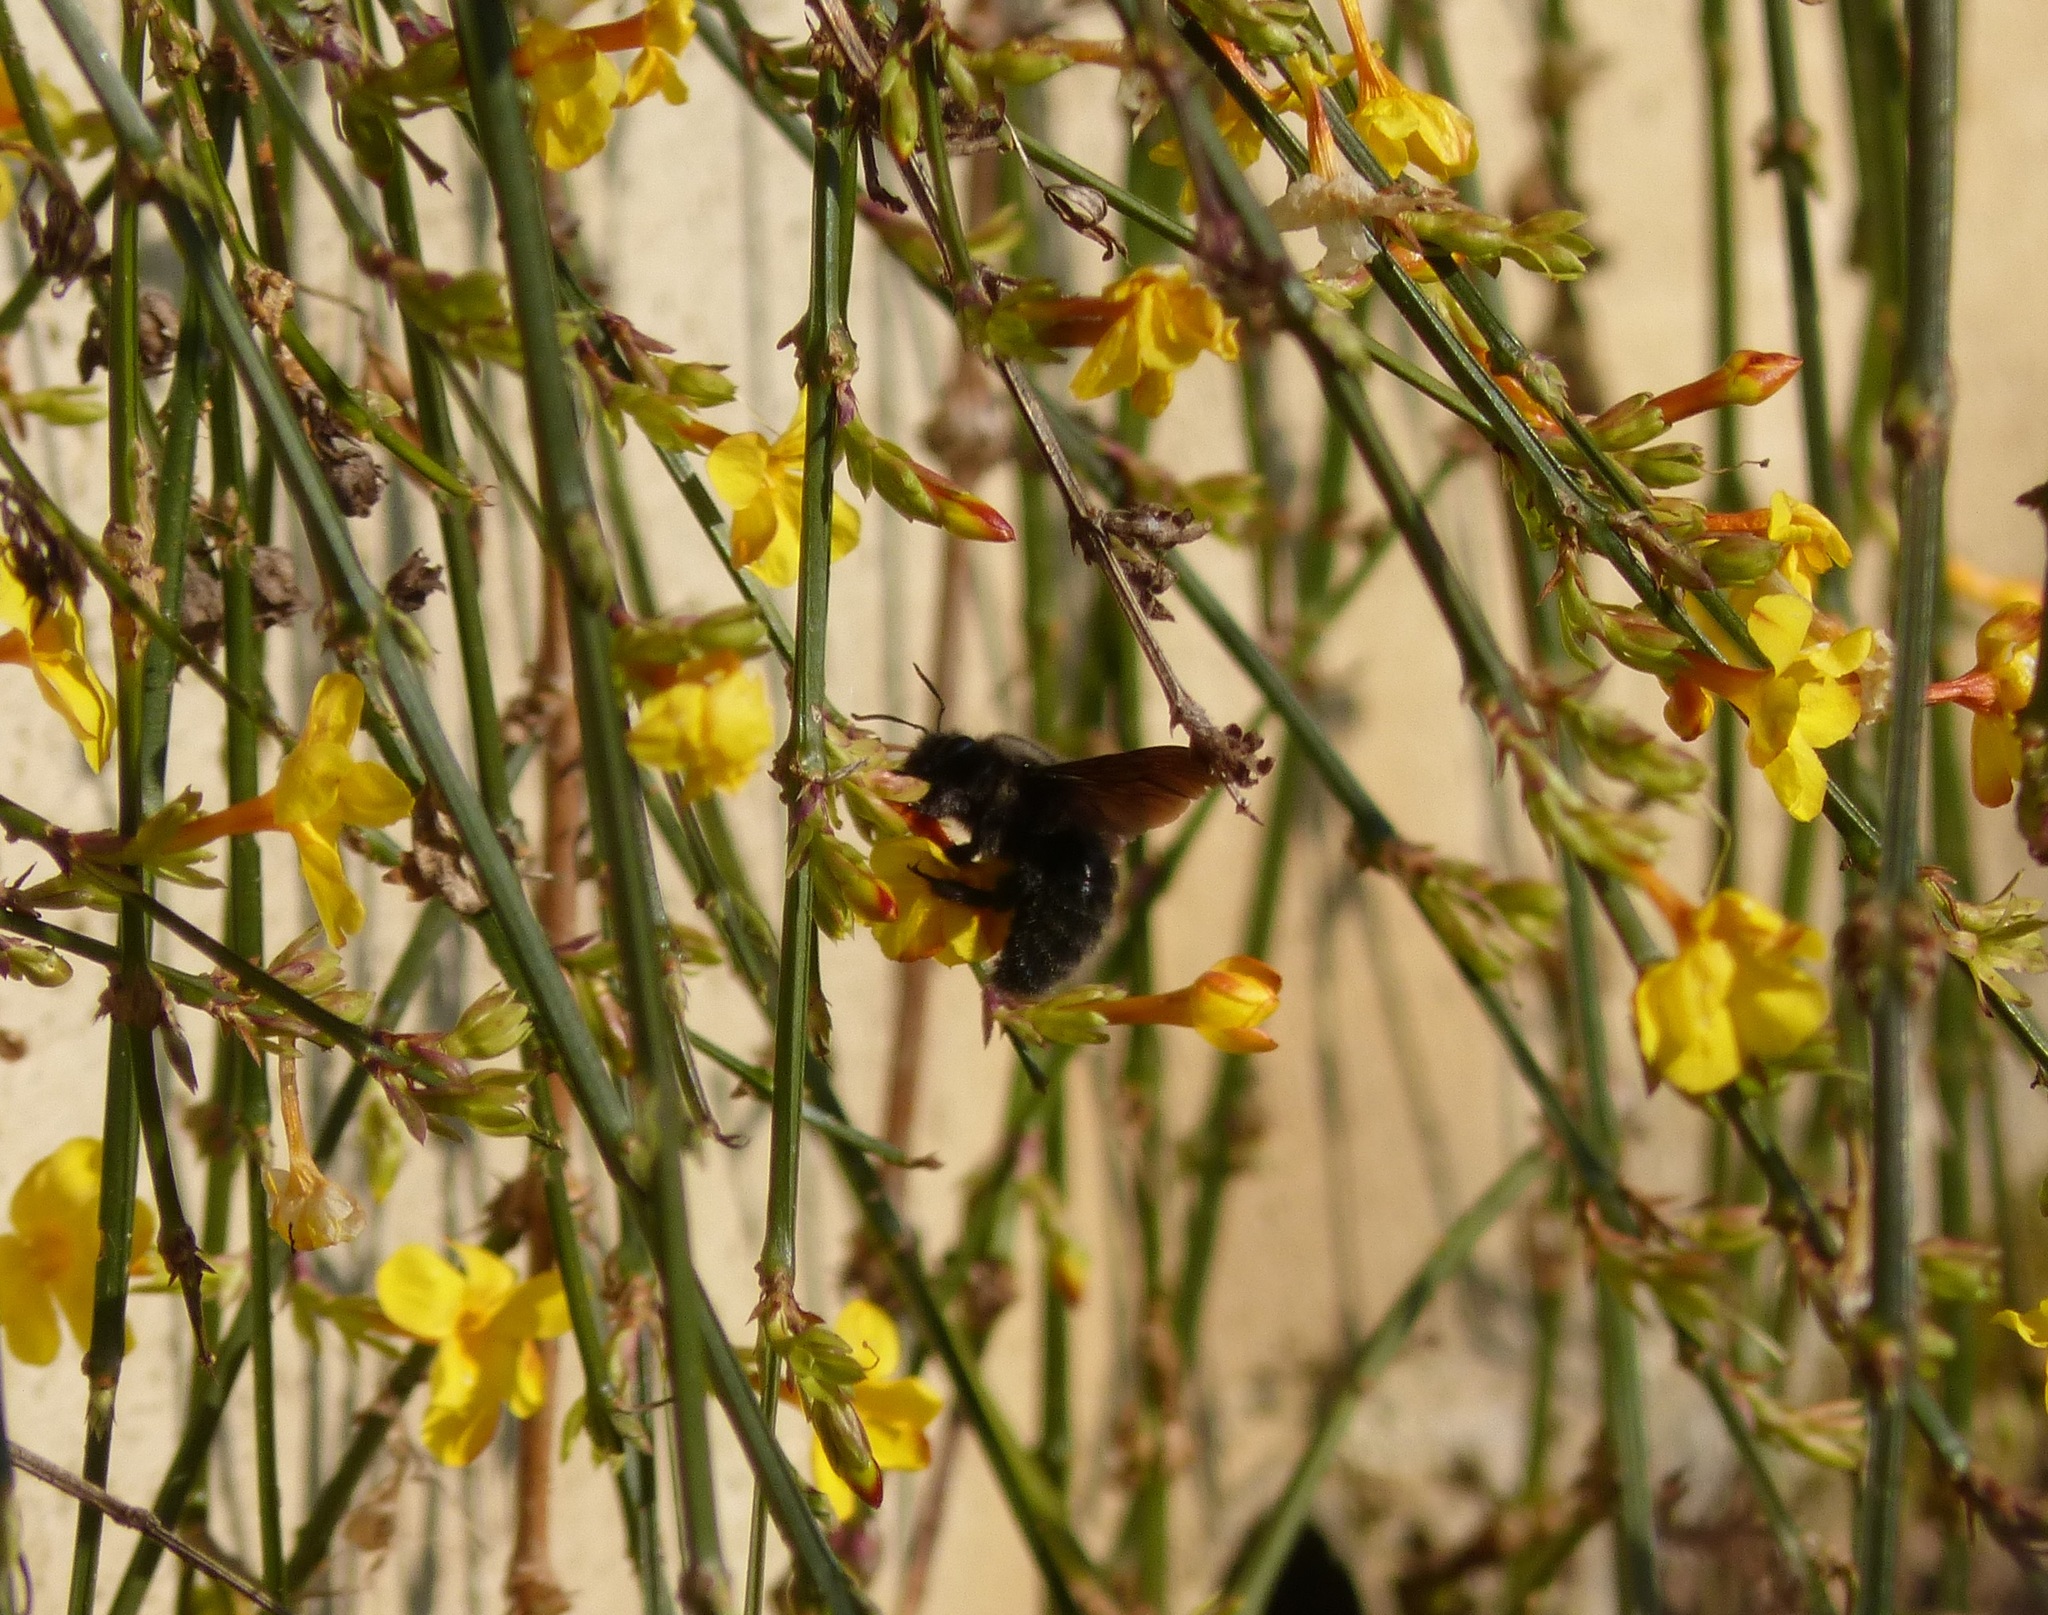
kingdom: Animalia
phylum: Arthropoda
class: Insecta
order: Hymenoptera
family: Apidae
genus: Xylocopa
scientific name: Xylocopa violacea
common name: Violet carpenter bee
